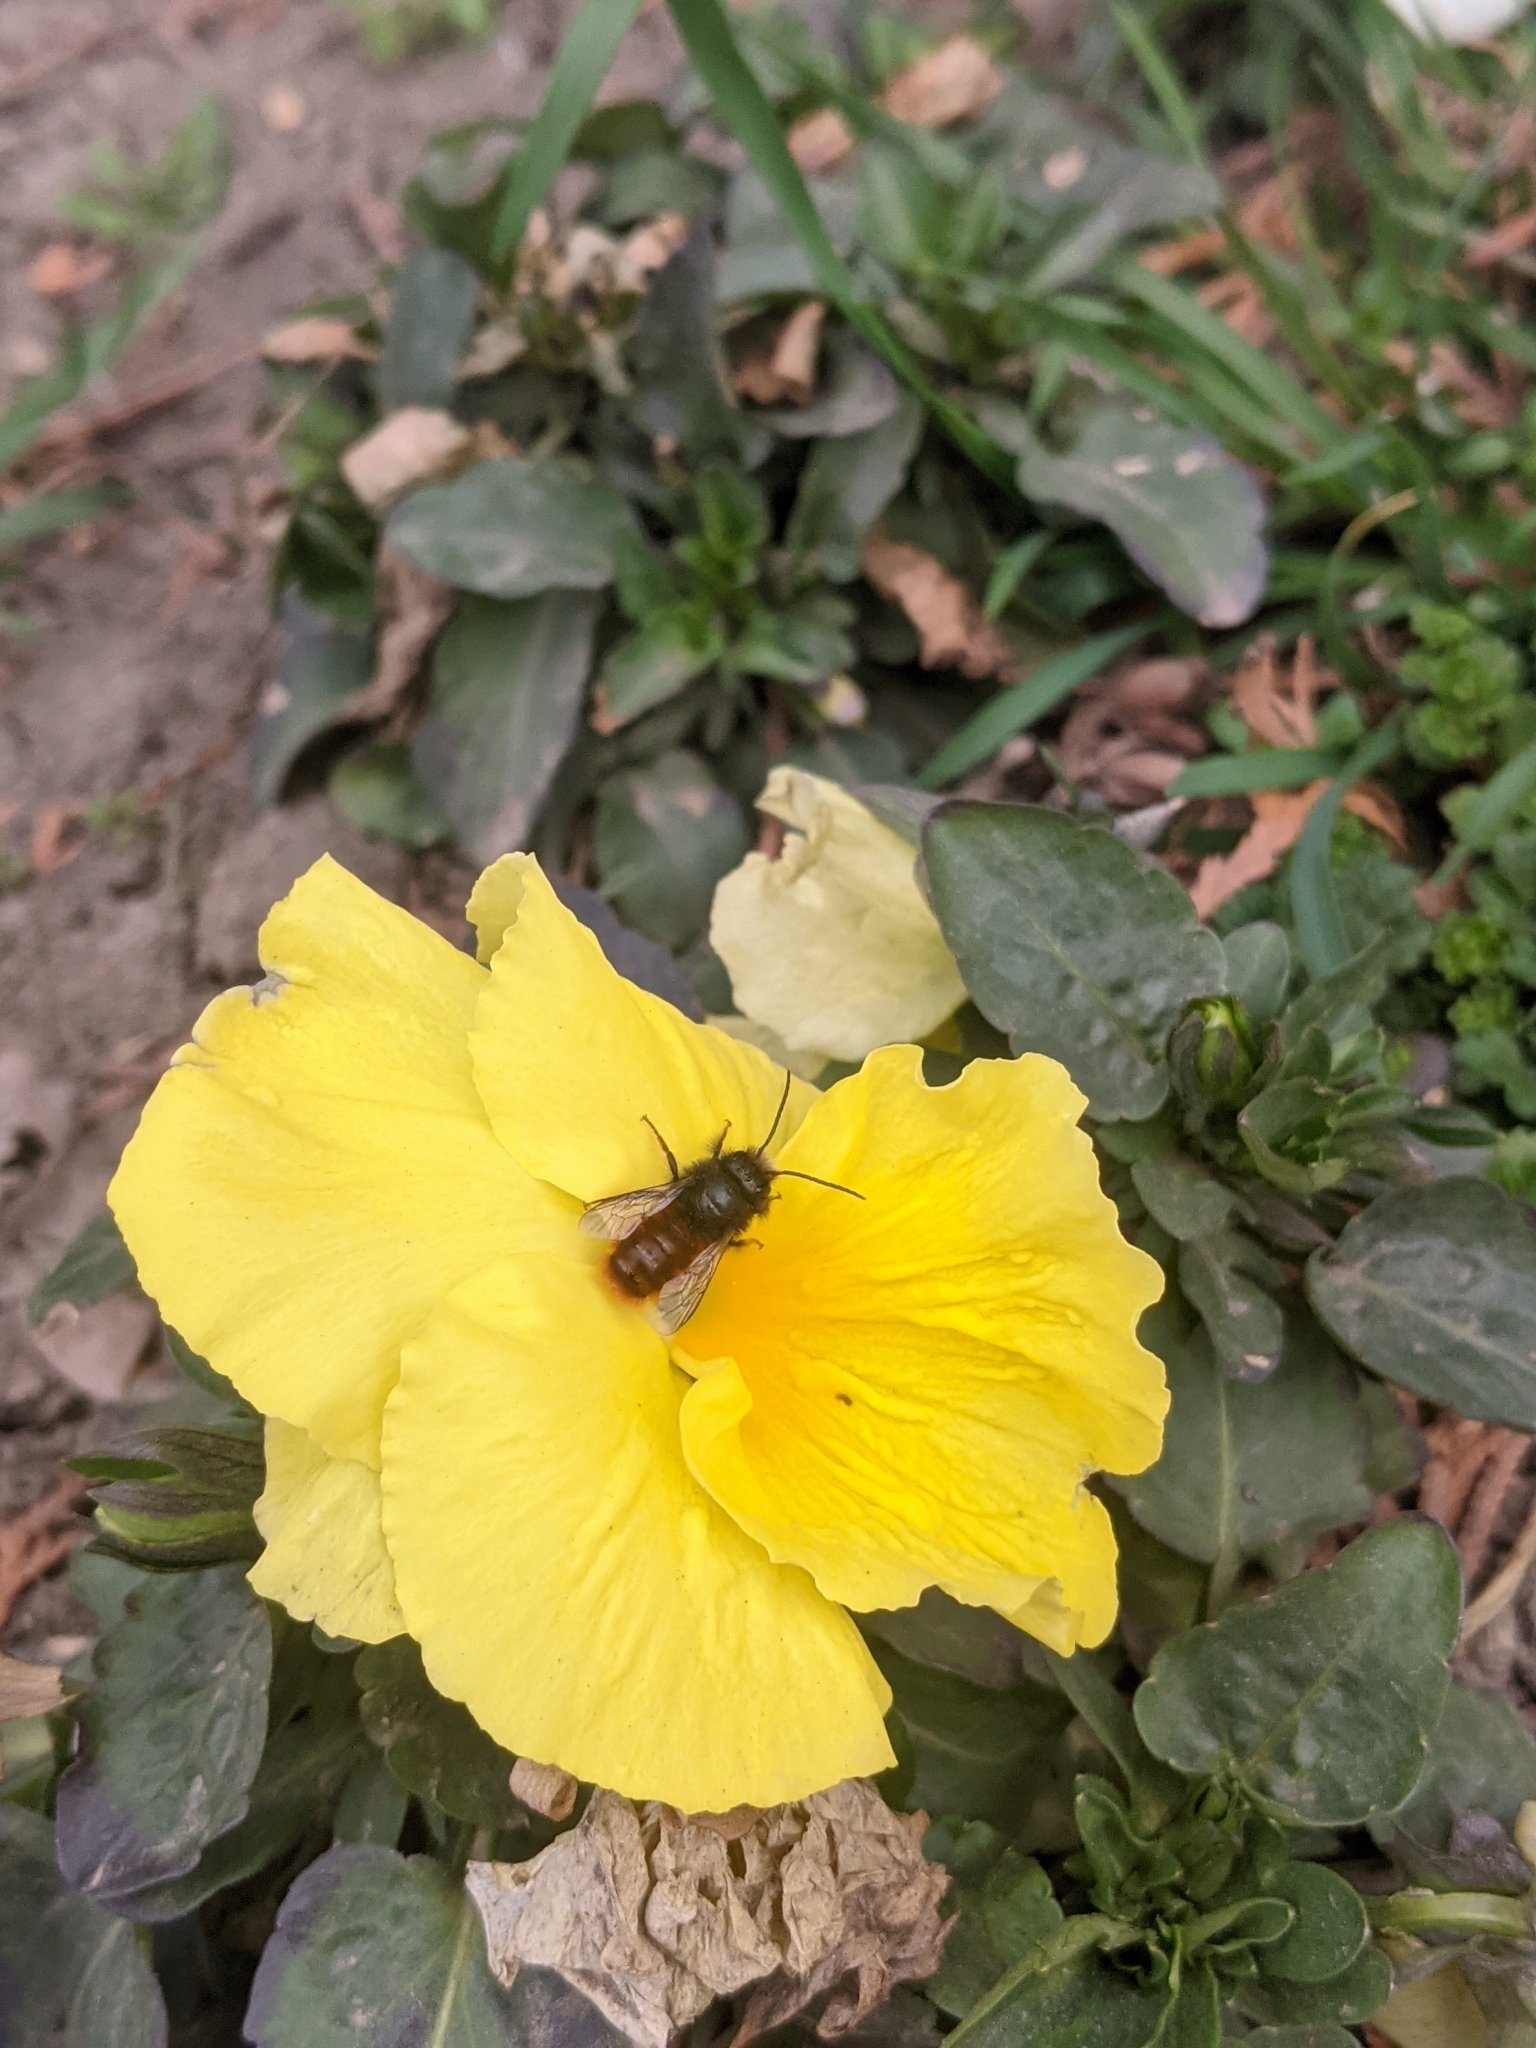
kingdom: Animalia
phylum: Arthropoda
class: Insecta
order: Hymenoptera
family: Megachilidae
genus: Osmia
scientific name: Osmia cornuta
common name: Mason bee
